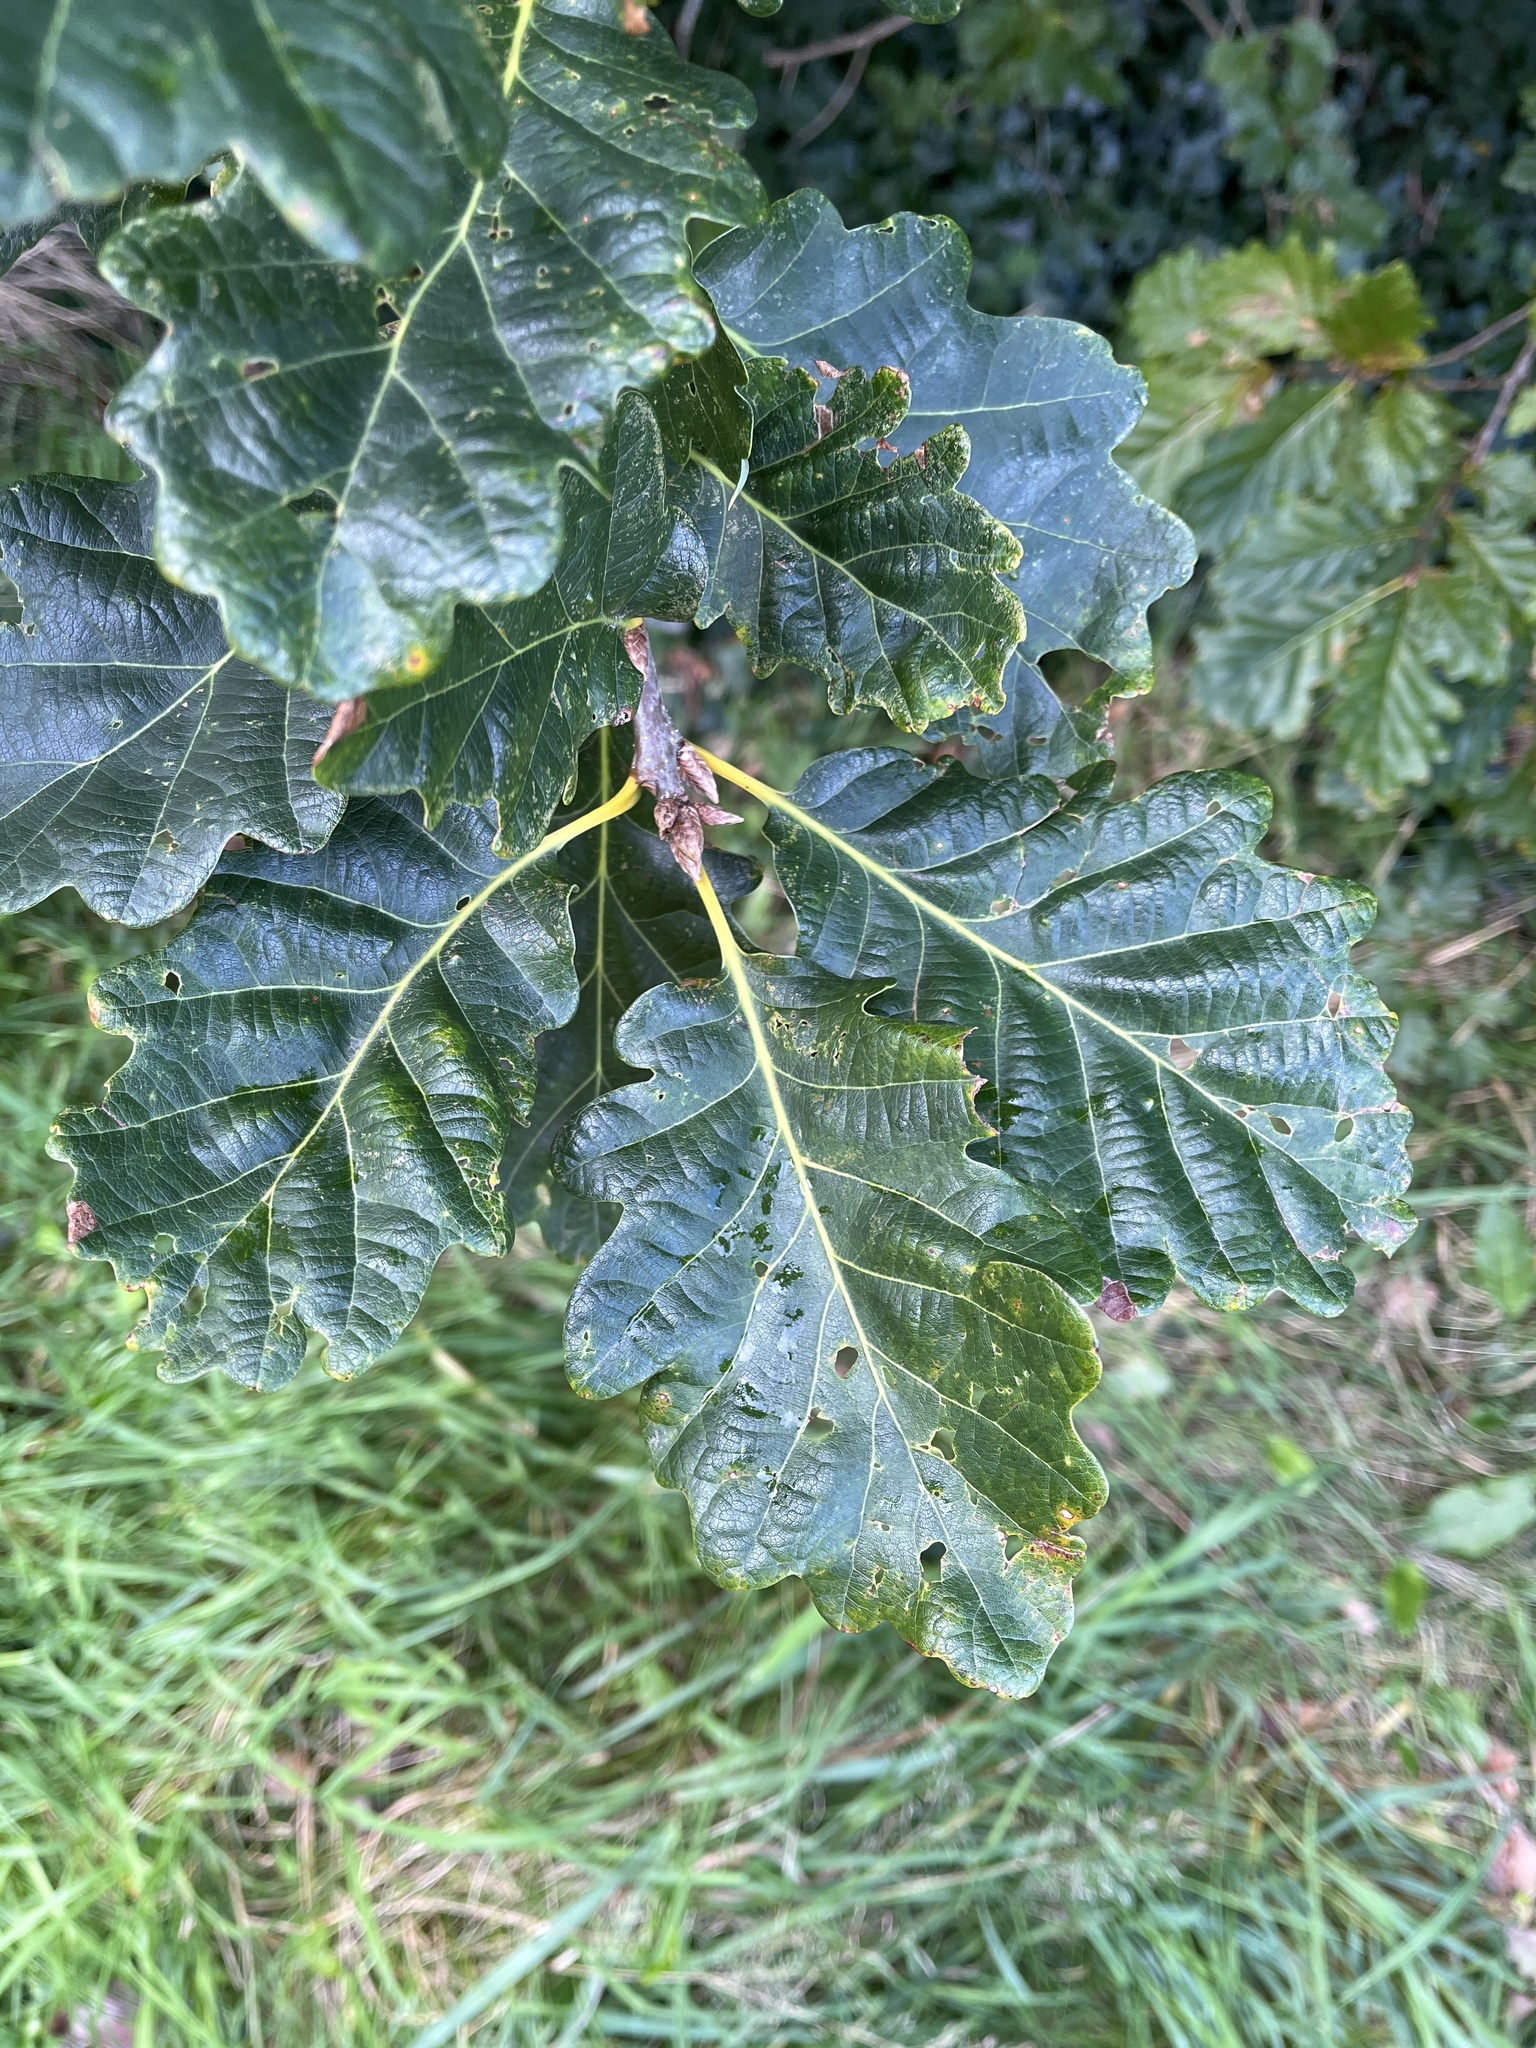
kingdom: Plantae
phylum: Tracheophyta
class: Magnoliopsida
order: Fagales
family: Fagaceae
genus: Quercus
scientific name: Quercus petraea
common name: Sessile oak
